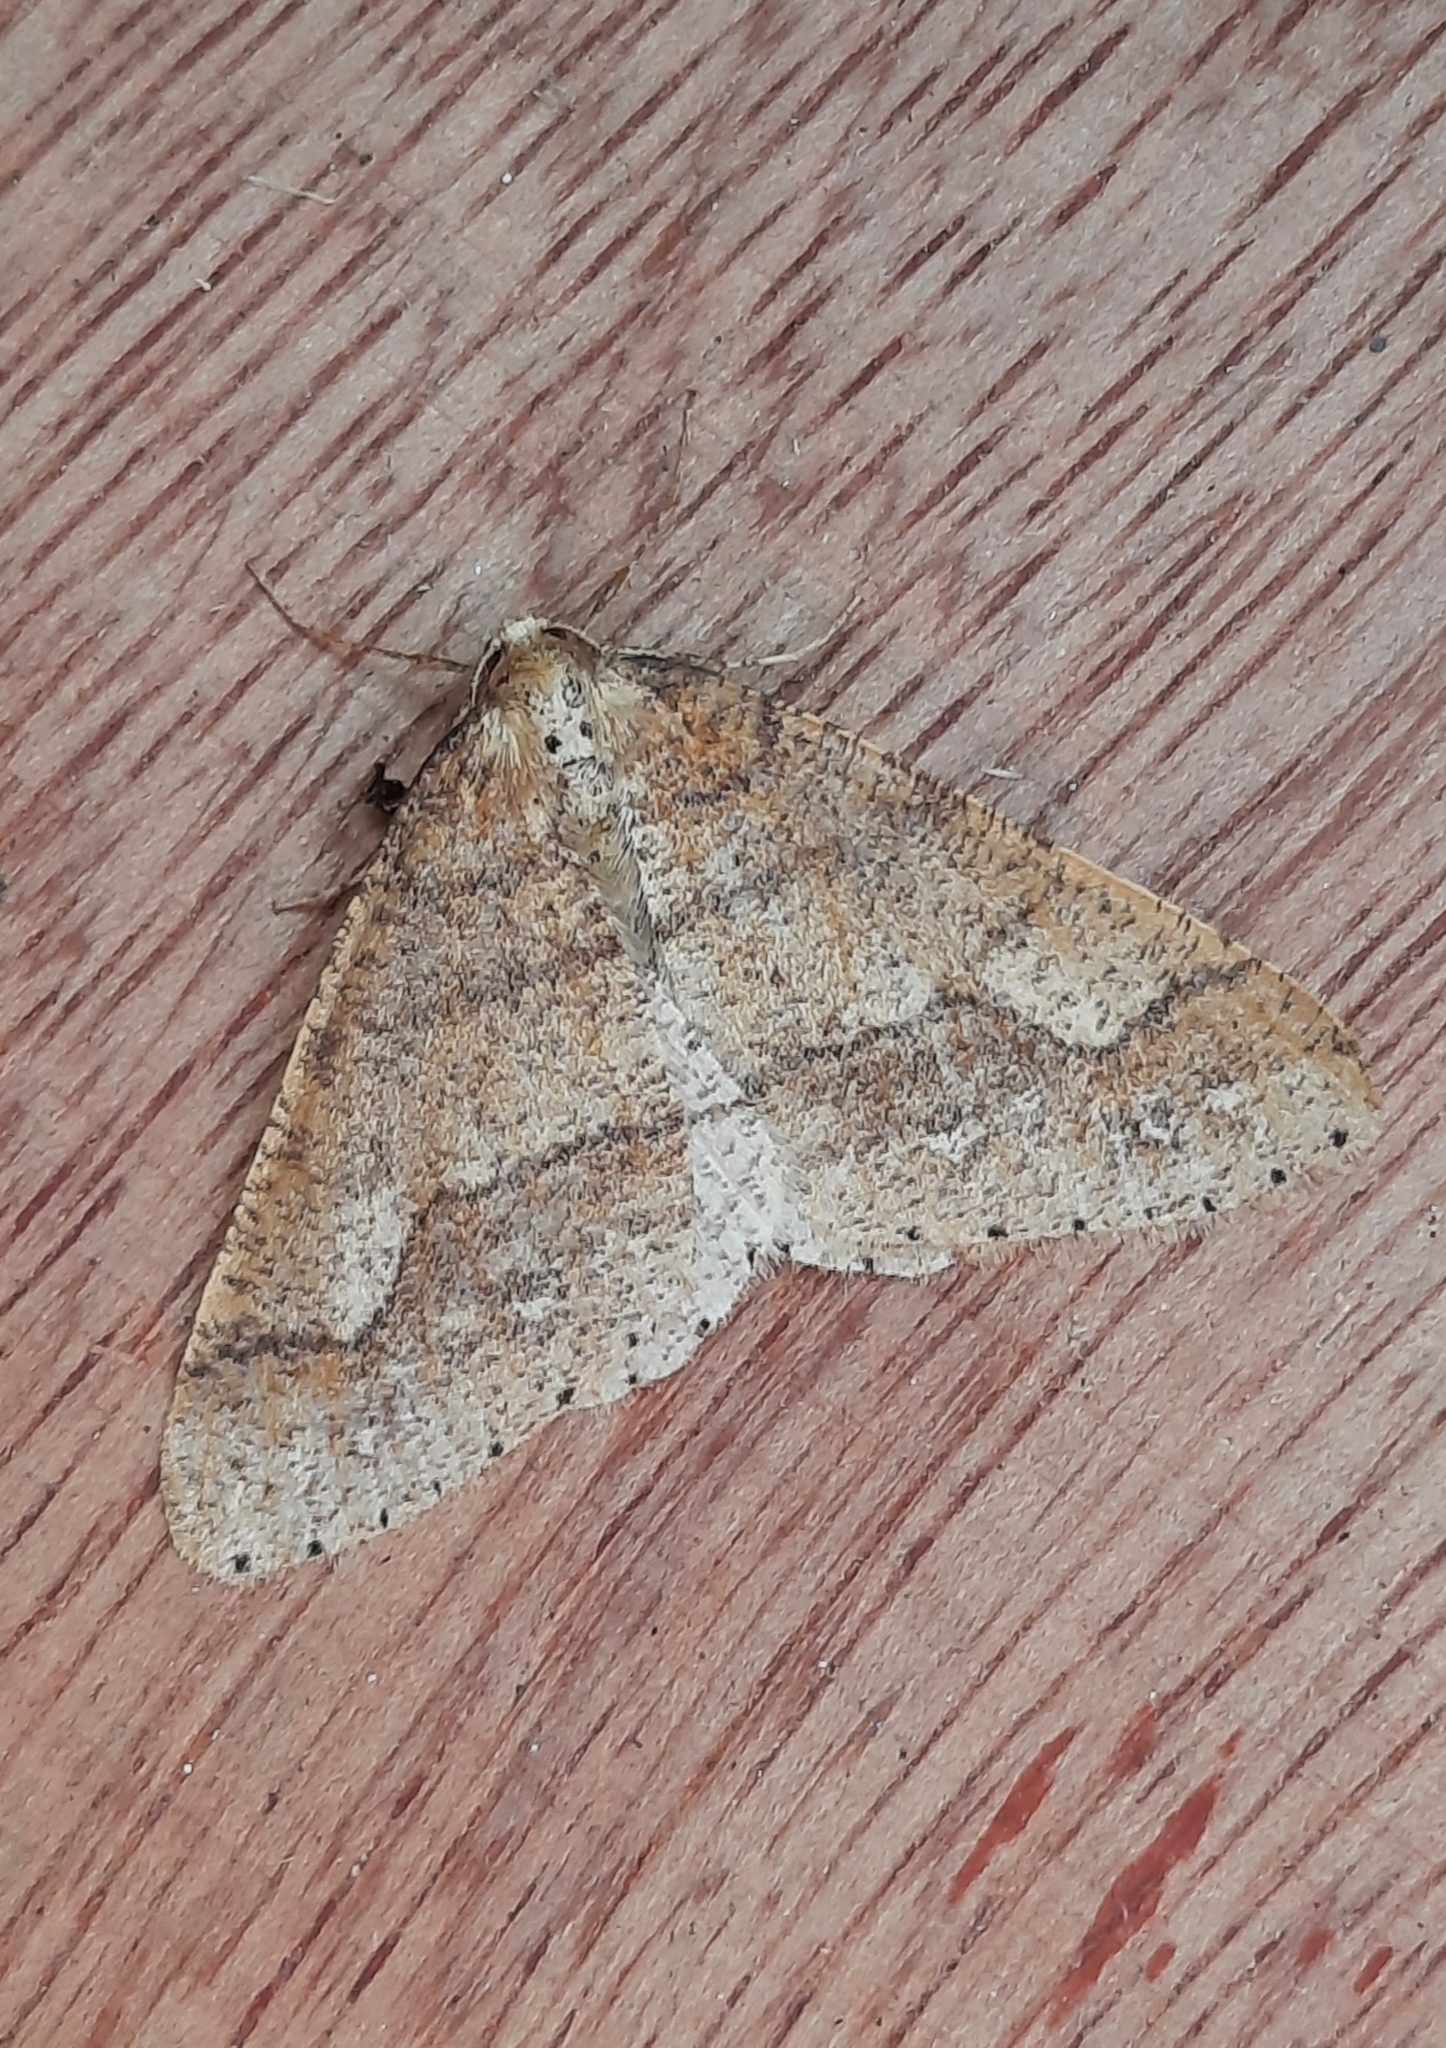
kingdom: Animalia
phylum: Arthropoda
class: Insecta
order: Lepidoptera
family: Geometridae
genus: Agriopis
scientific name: Agriopis marginaria
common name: Dotted border
